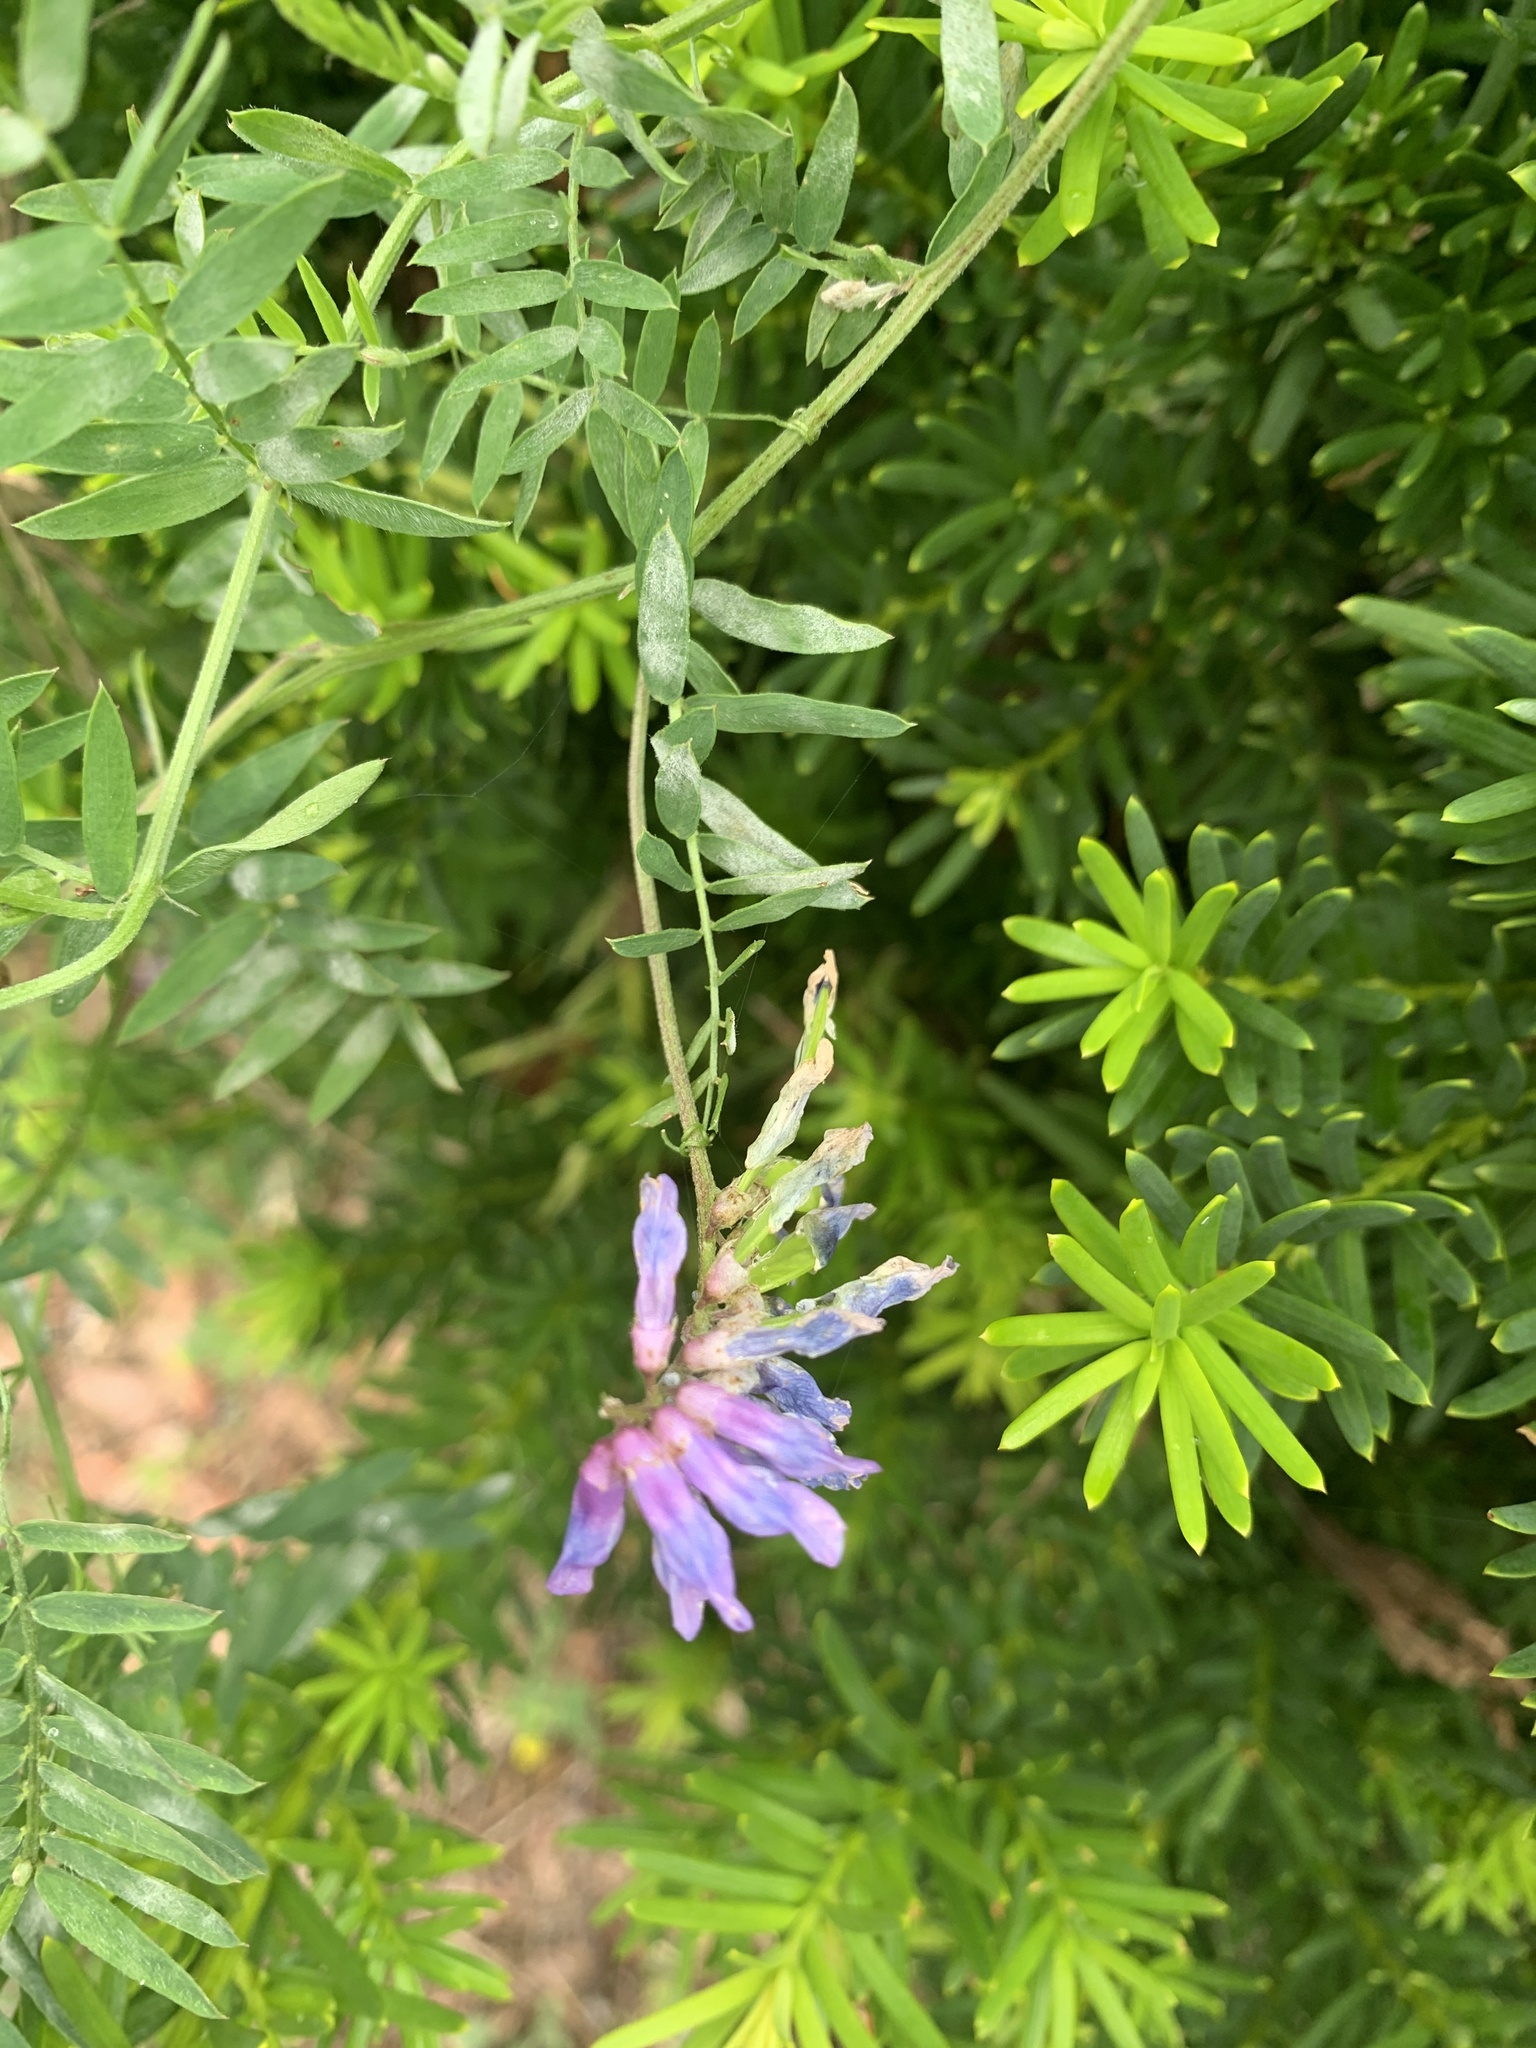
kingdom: Plantae
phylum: Tracheophyta
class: Magnoliopsida
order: Fabales
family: Fabaceae
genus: Vicia
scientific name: Vicia cracca
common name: Bird vetch
